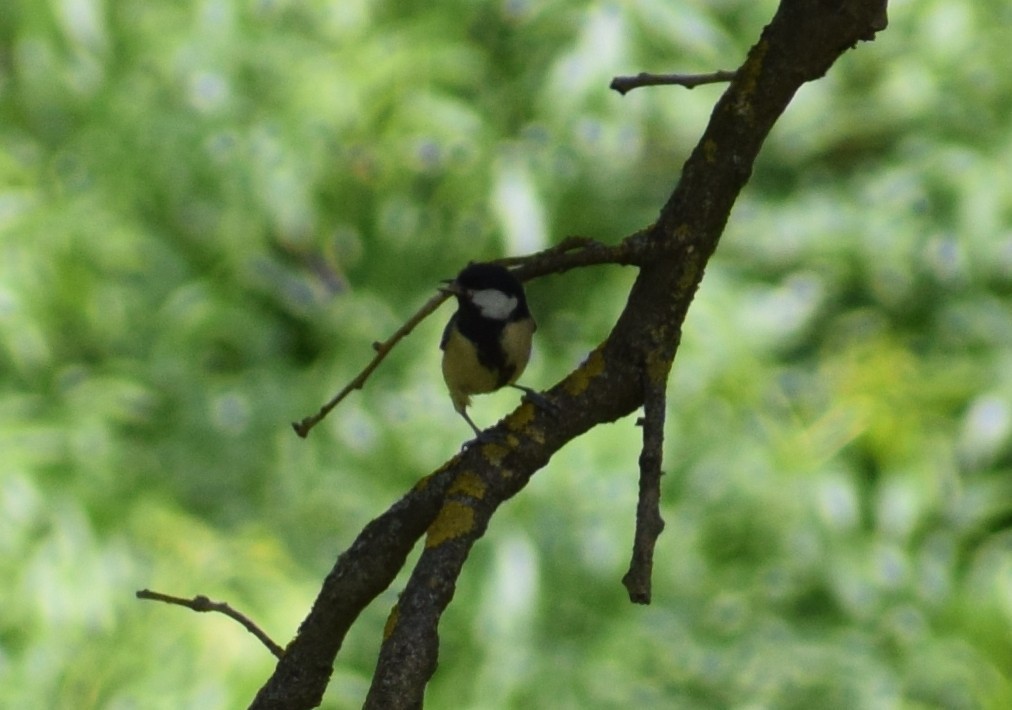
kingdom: Animalia
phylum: Chordata
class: Aves
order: Passeriformes
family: Paridae
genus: Parus
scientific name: Parus major
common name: Great tit
